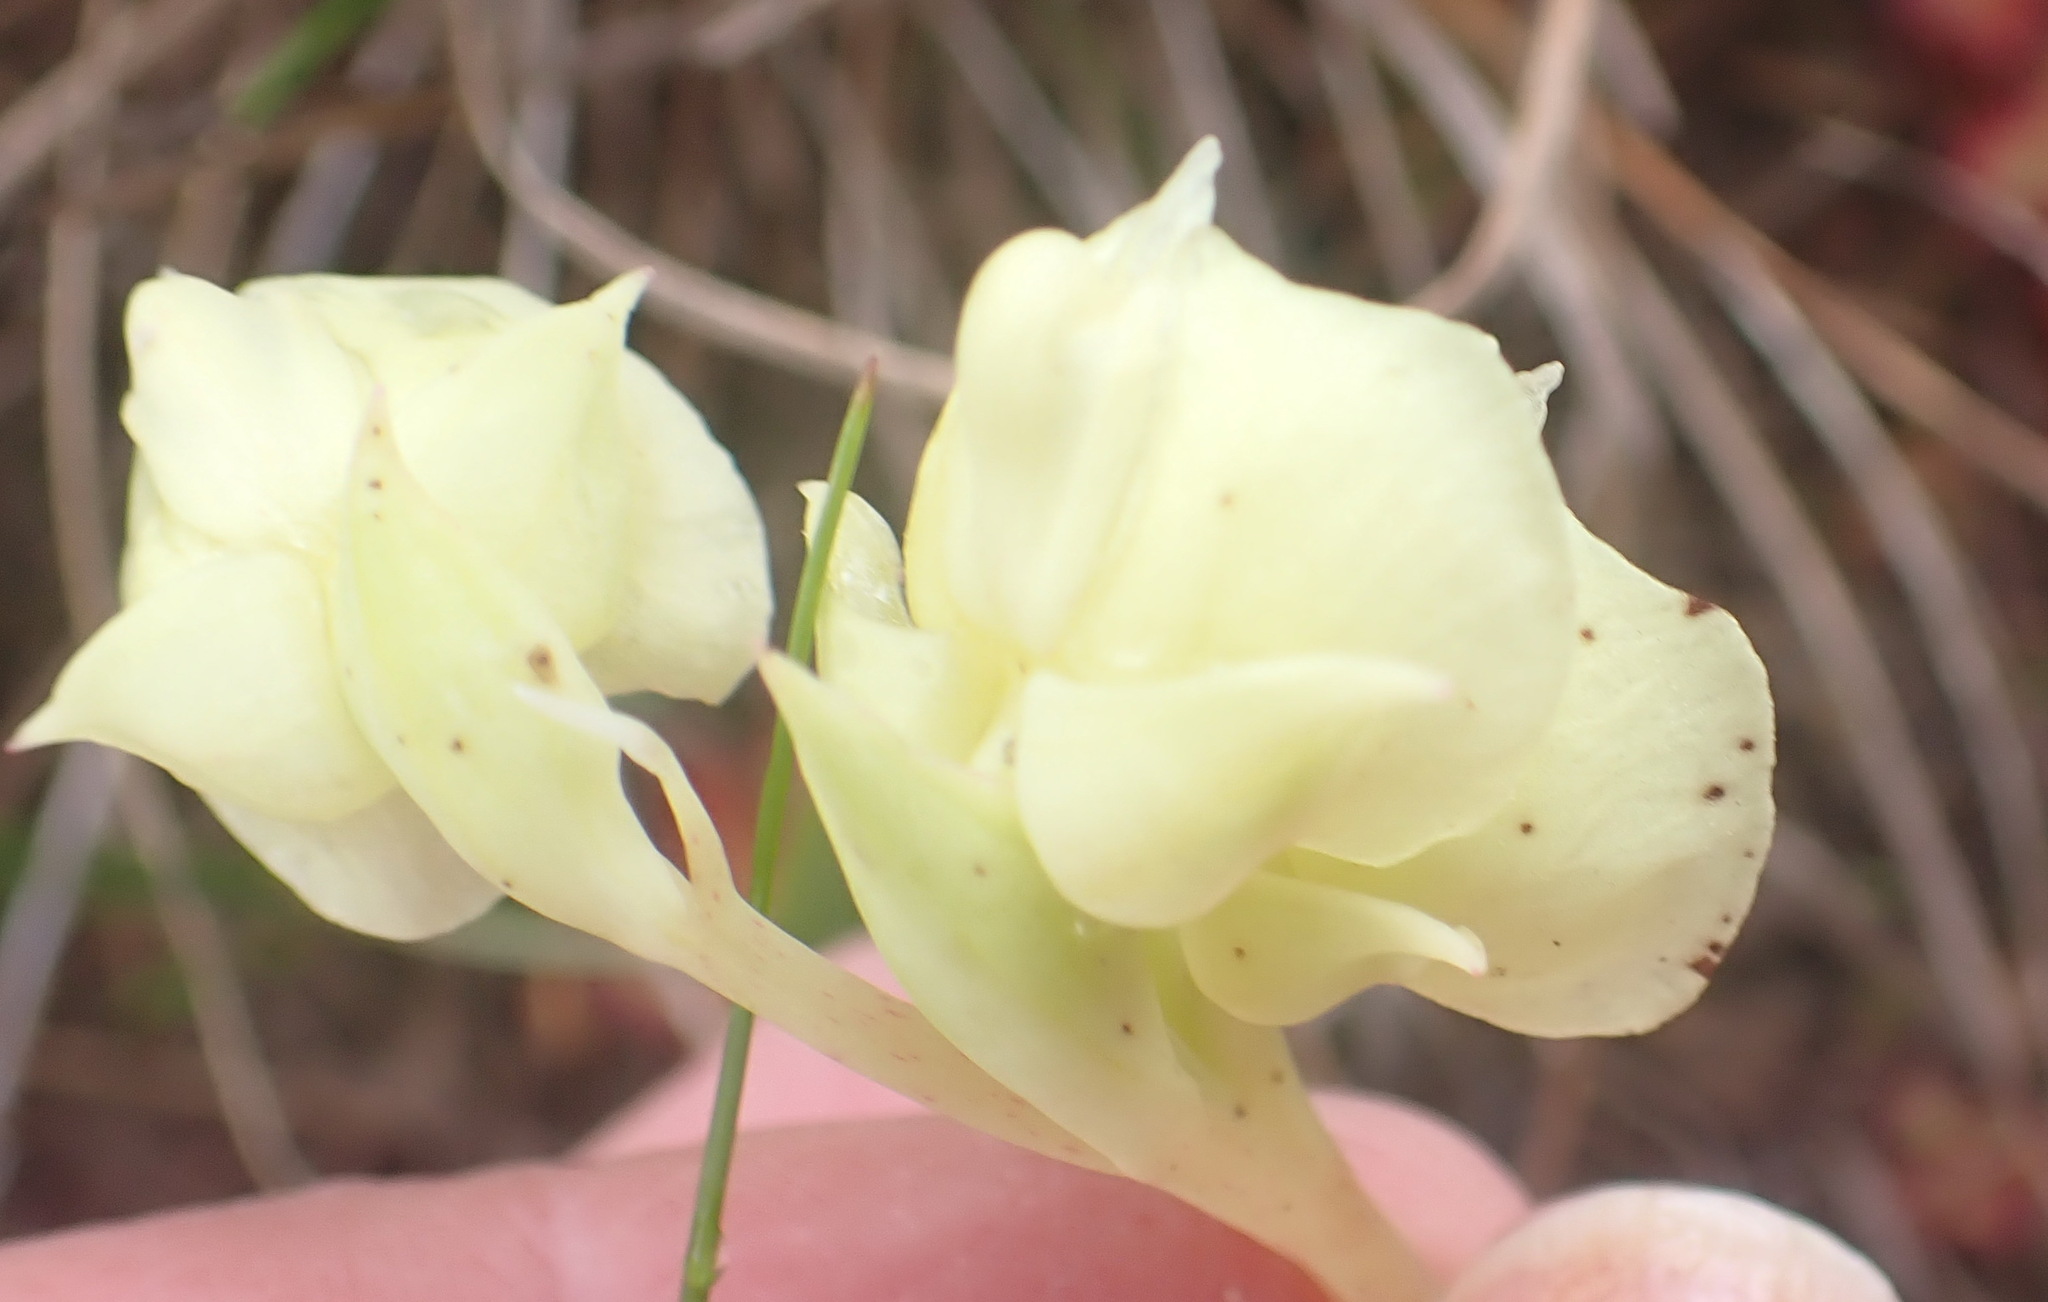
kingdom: Plantae
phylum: Tracheophyta
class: Liliopsida
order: Asparagales
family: Orchidaceae
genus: Pterygodium
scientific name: Pterygodium catholicum
